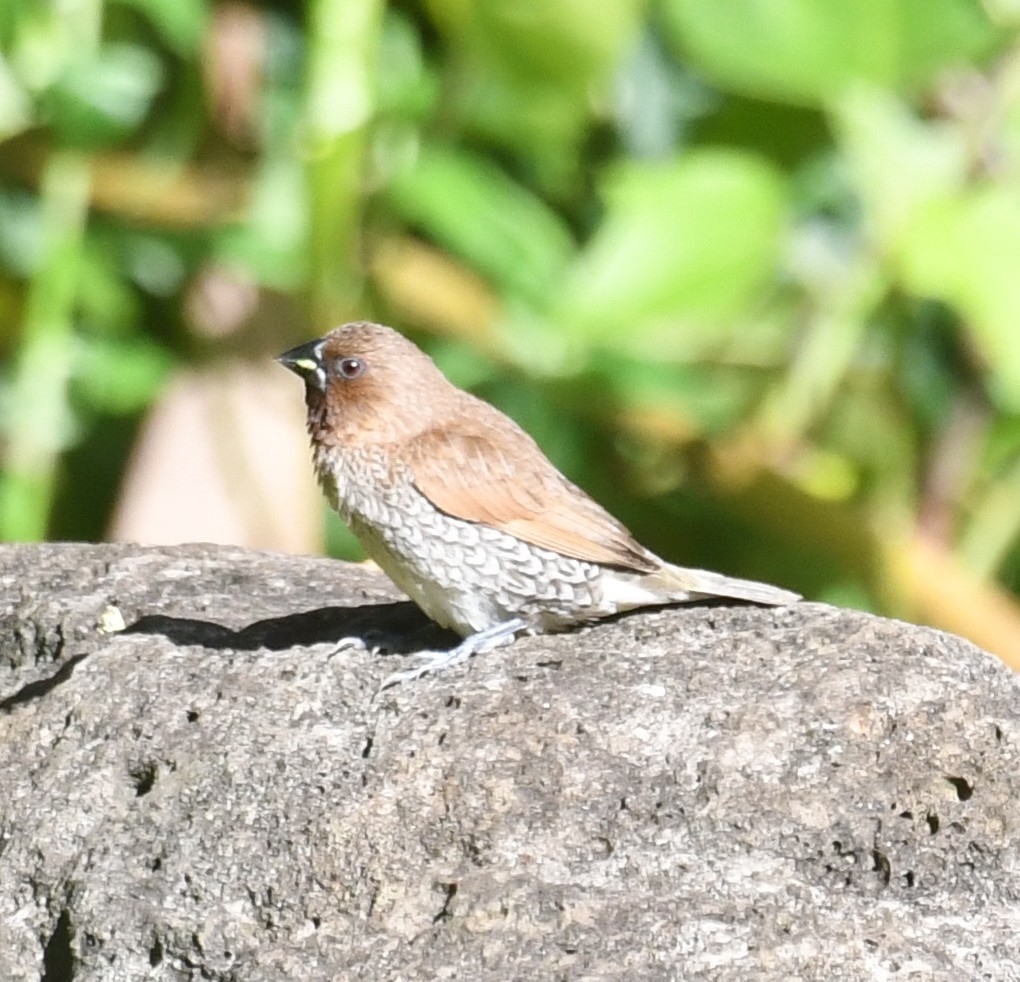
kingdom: Animalia
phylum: Chordata
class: Aves
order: Passeriformes
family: Estrildidae
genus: Lonchura
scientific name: Lonchura punctulata
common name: Scaly-breasted munia
